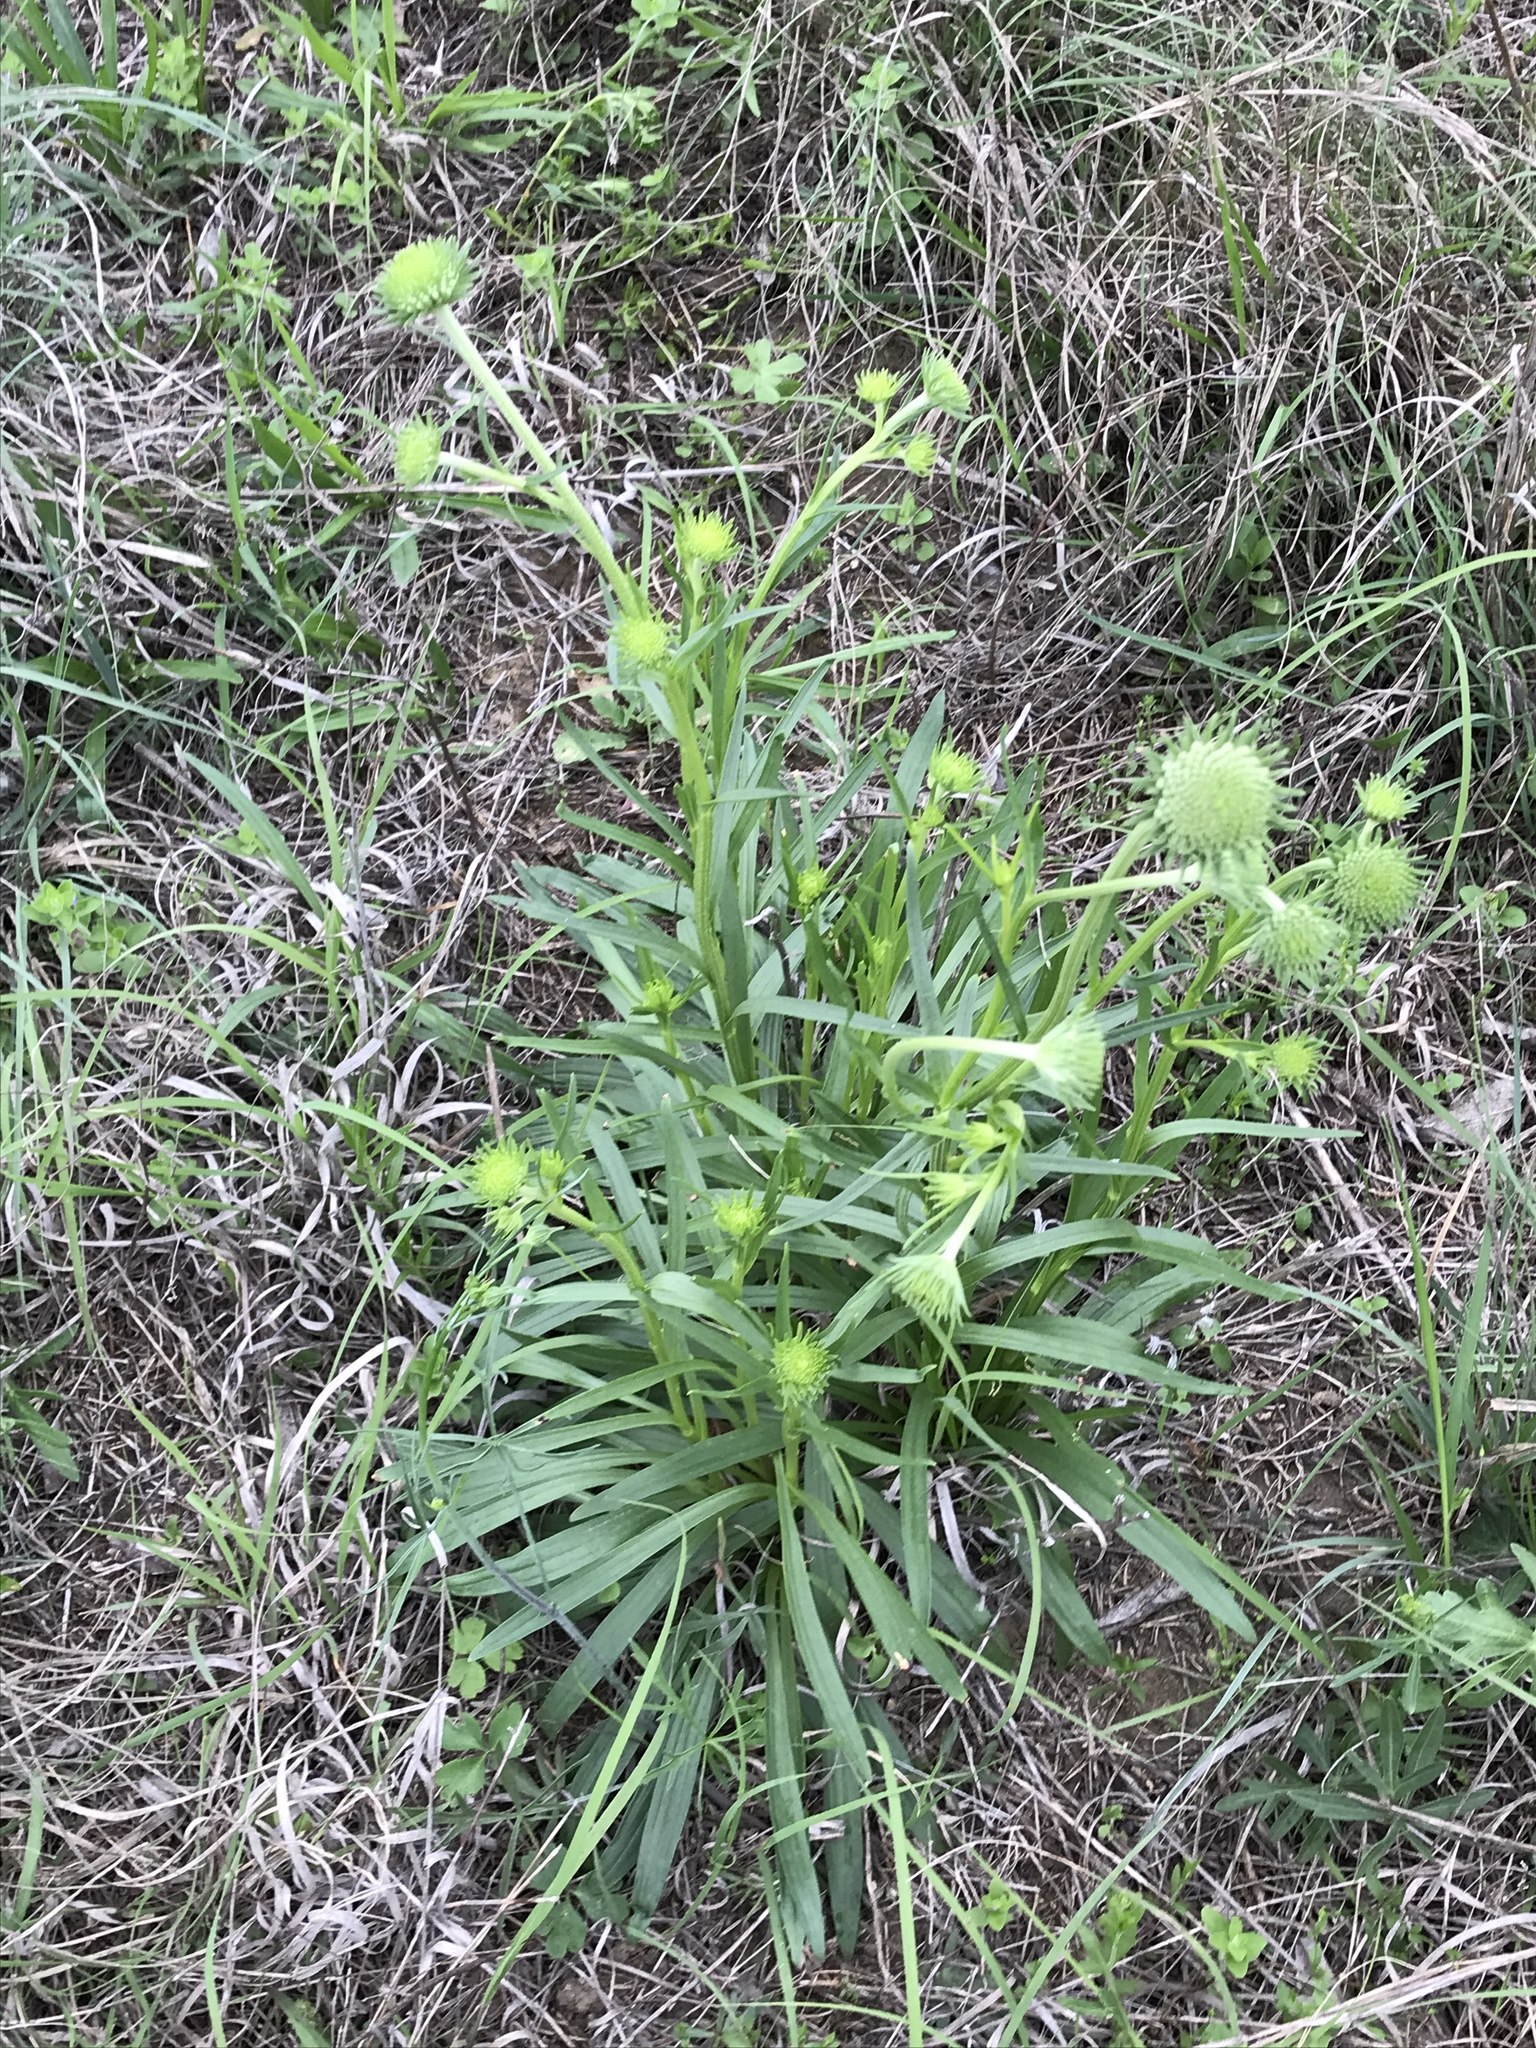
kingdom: Plantae
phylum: Tracheophyta
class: Magnoliopsida
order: Asterales
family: Asteraceae
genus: Marshallia
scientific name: Marshallia caespitosa
